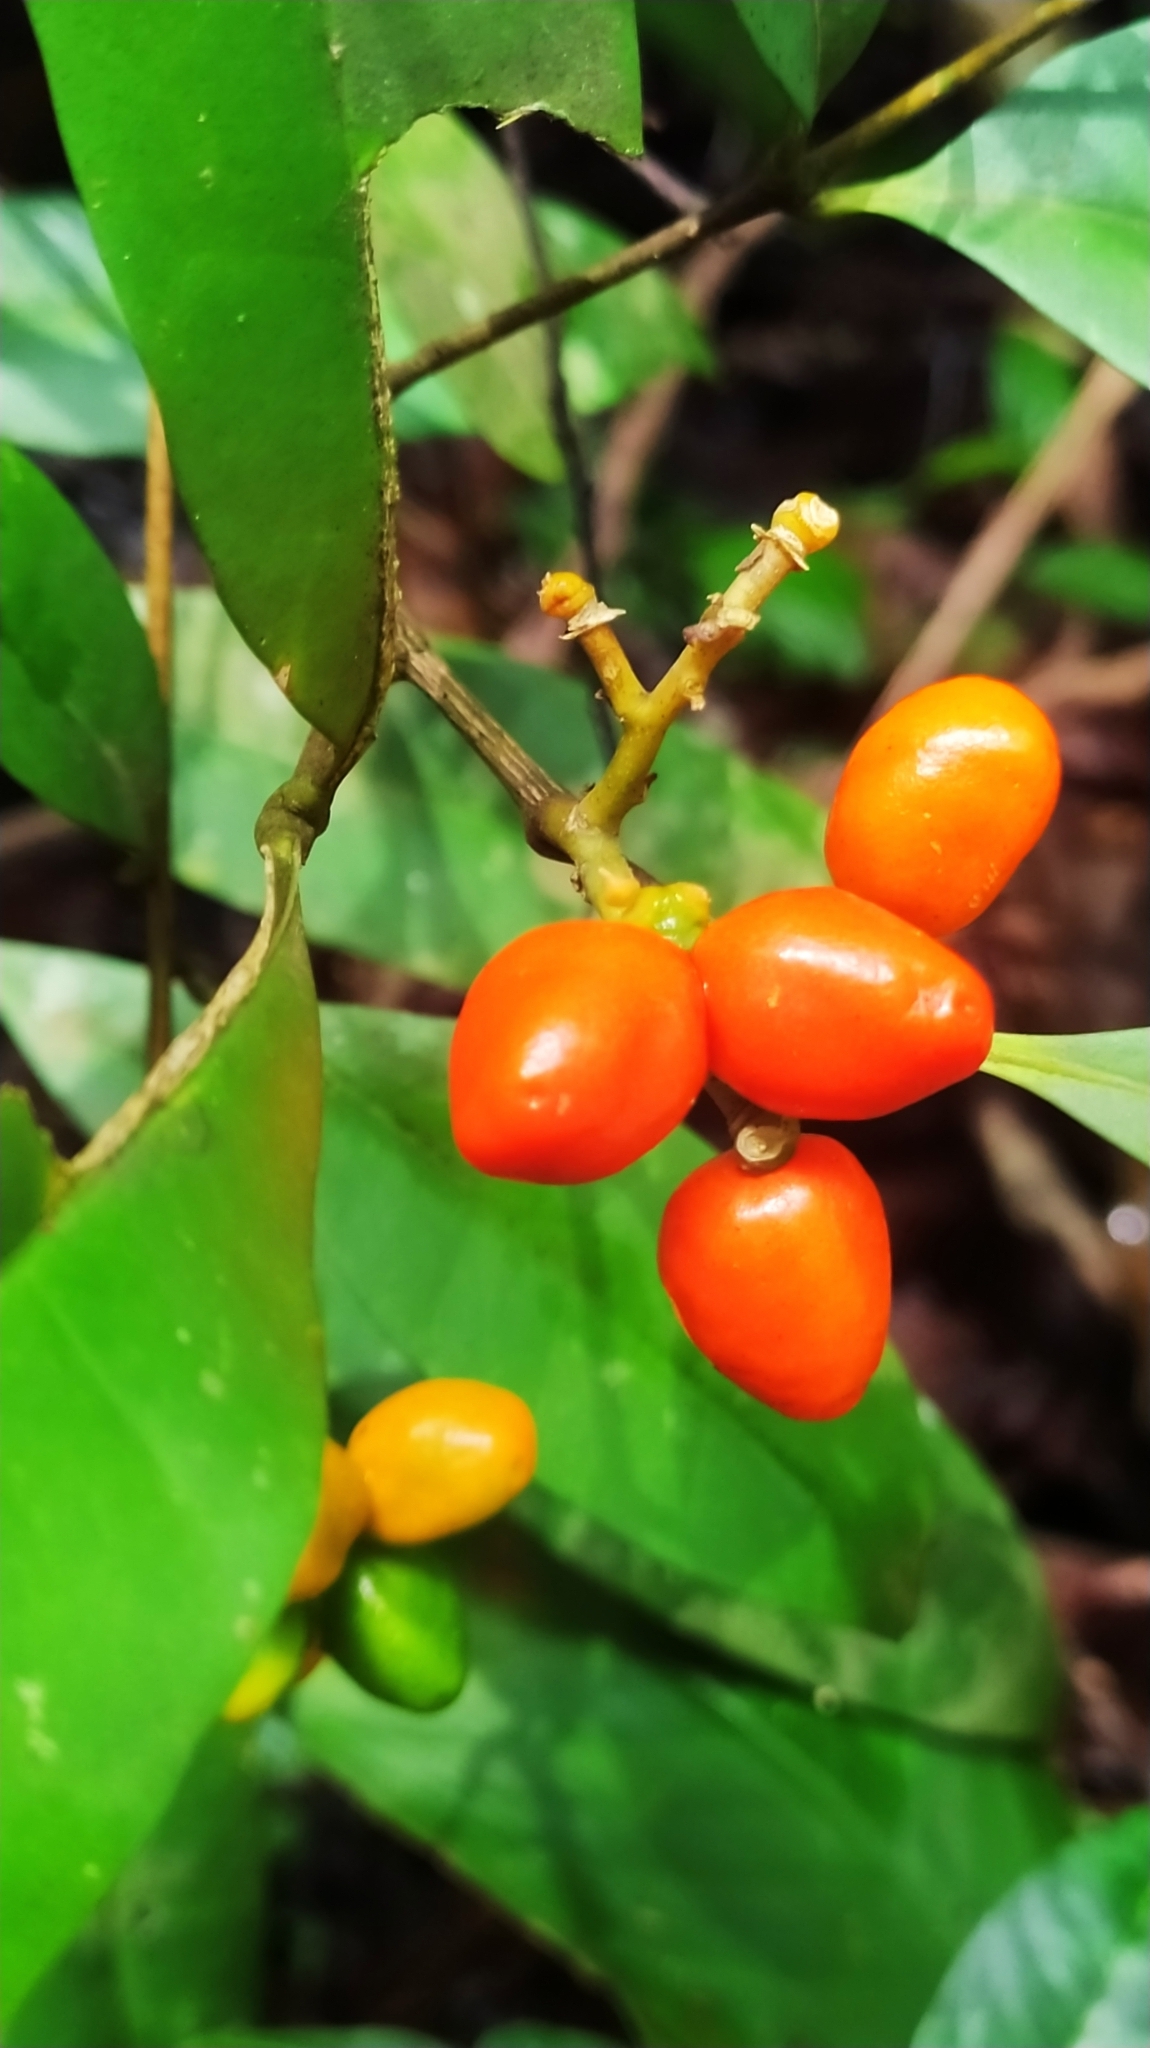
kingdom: Plantae
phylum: Tracheophyta
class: Magnoliopsida
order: Sapindales
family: Simaroubaceae
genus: Simaba
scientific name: Simaba guianensis
